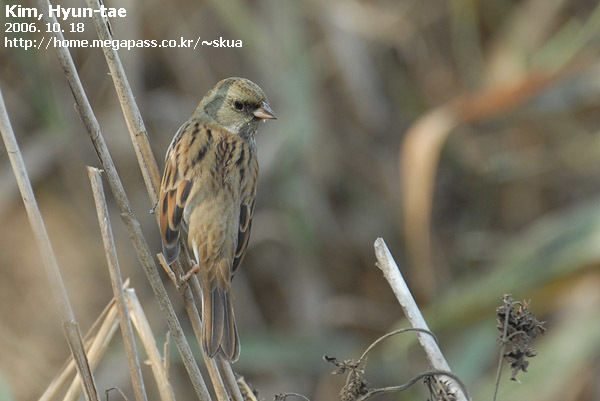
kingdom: Animalia
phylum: Chordata
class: Aves
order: Passeriformes
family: Emberizidae
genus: Emberiza
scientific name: Emberiza spodocephala
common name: Black-faced bunting
